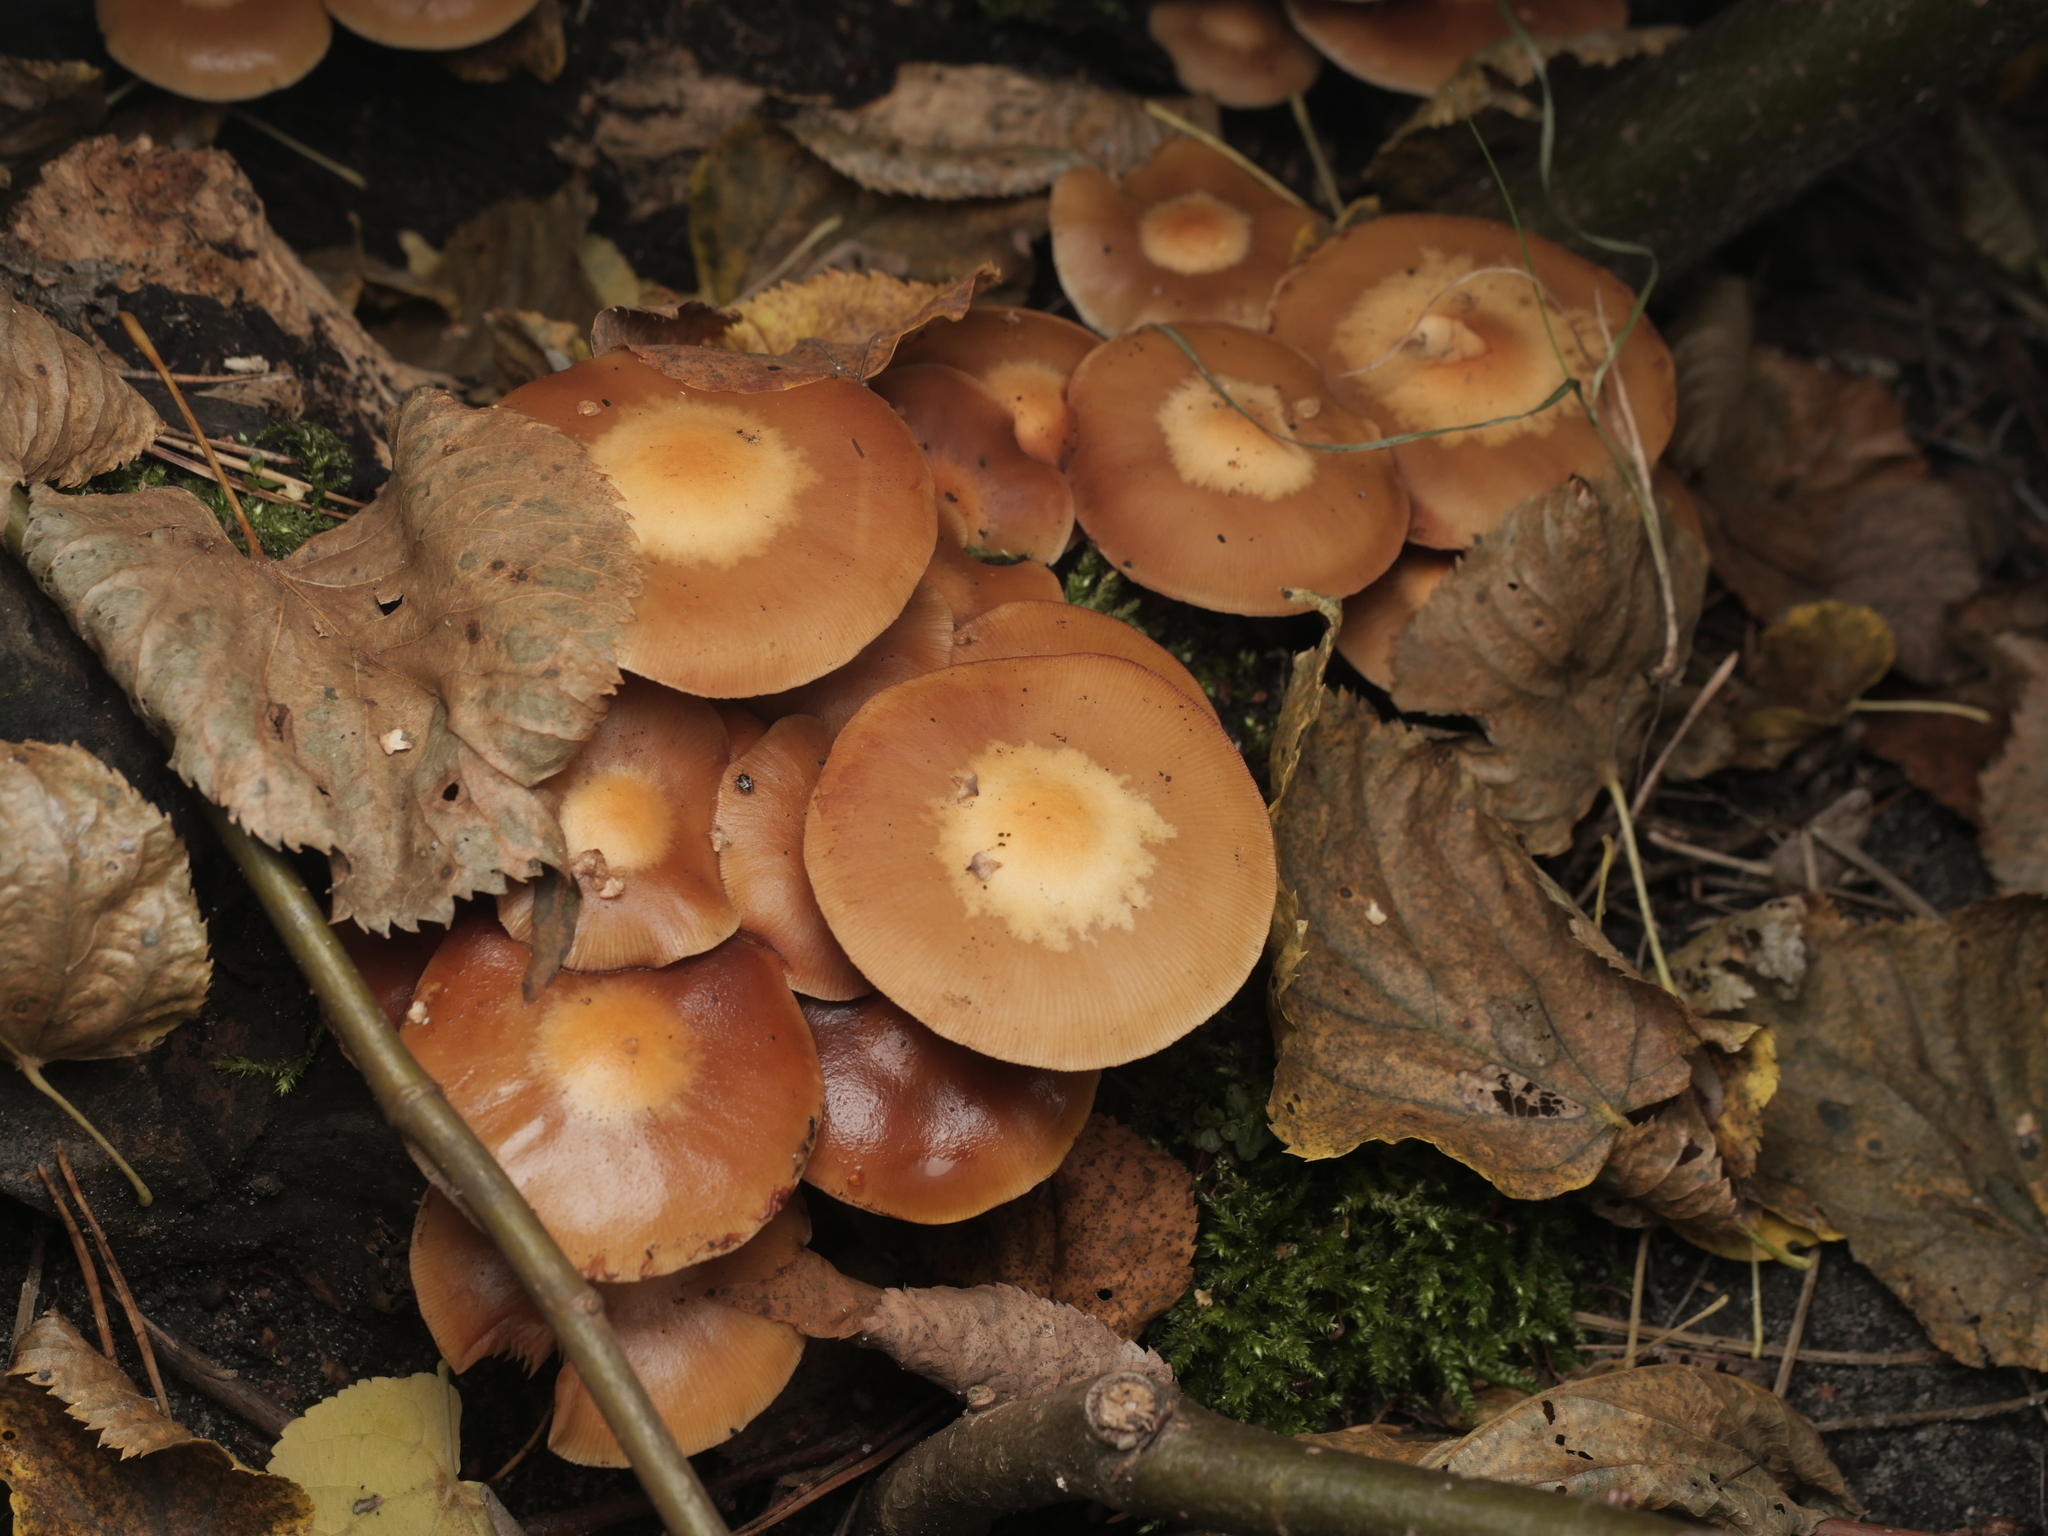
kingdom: Fungi
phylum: Basidiomycota
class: Agaricomycetes
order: Agaricales
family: Strophariaceae
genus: Kuehneromyces
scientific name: Kuehneromyces mutabilis
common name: Sheathed woodtuft
